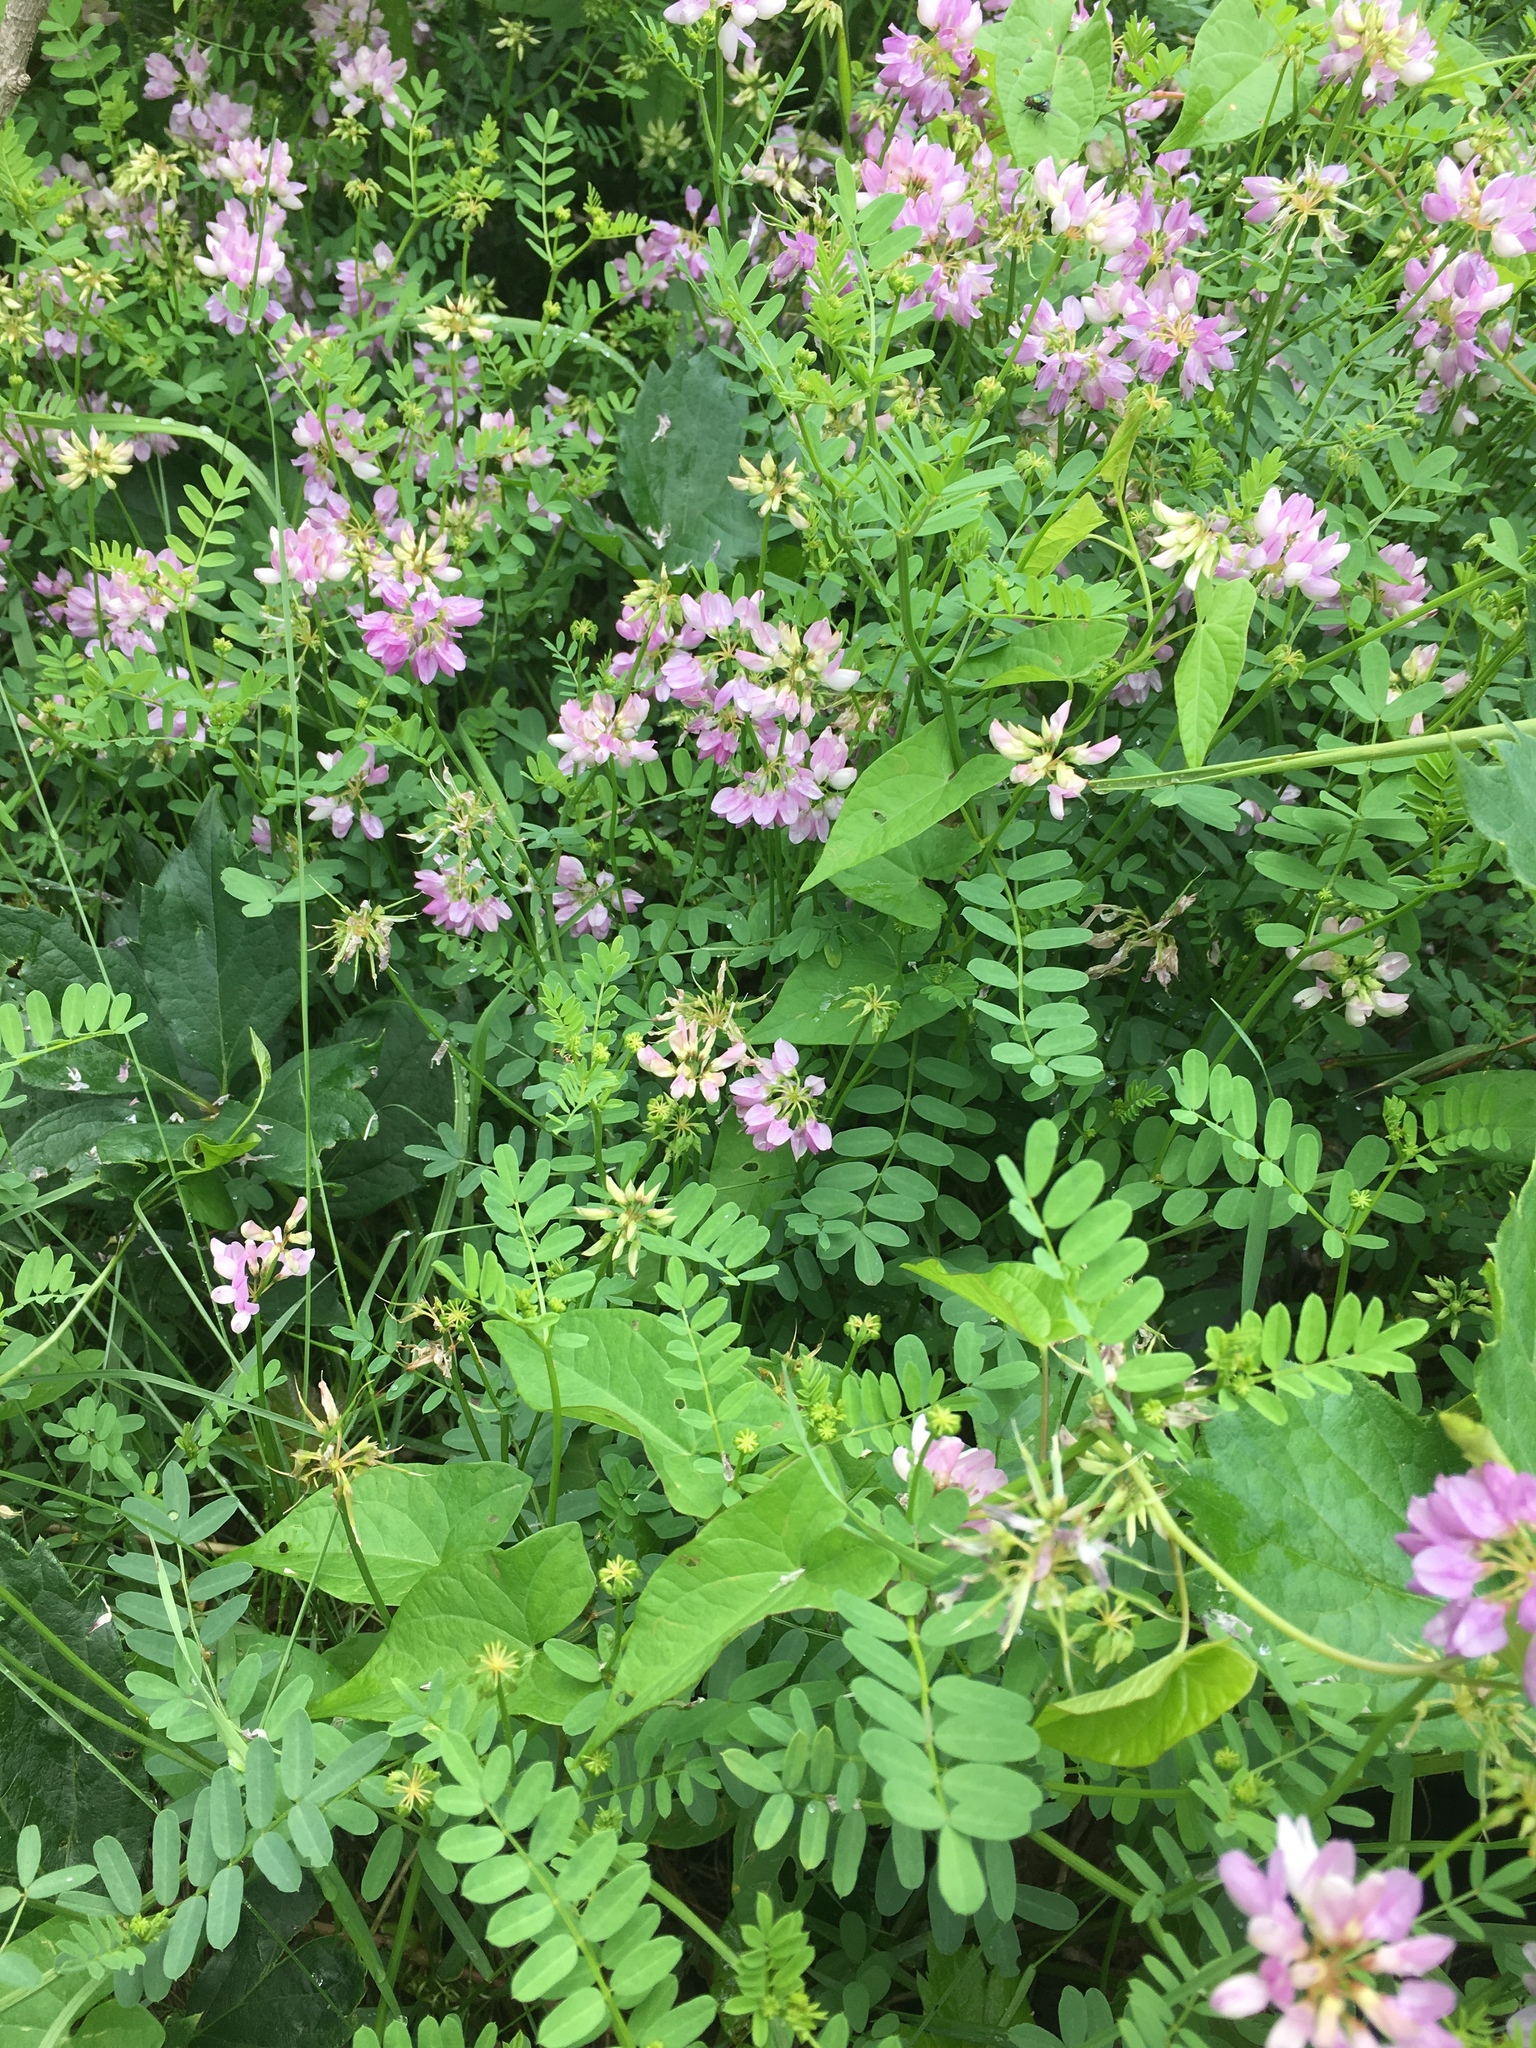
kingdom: Plantae
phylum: Tracheophyta
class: Magnoliopsida
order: Fabales
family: Fabaceae
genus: Coronilla
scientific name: Coronilla varia
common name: Crownvetch
